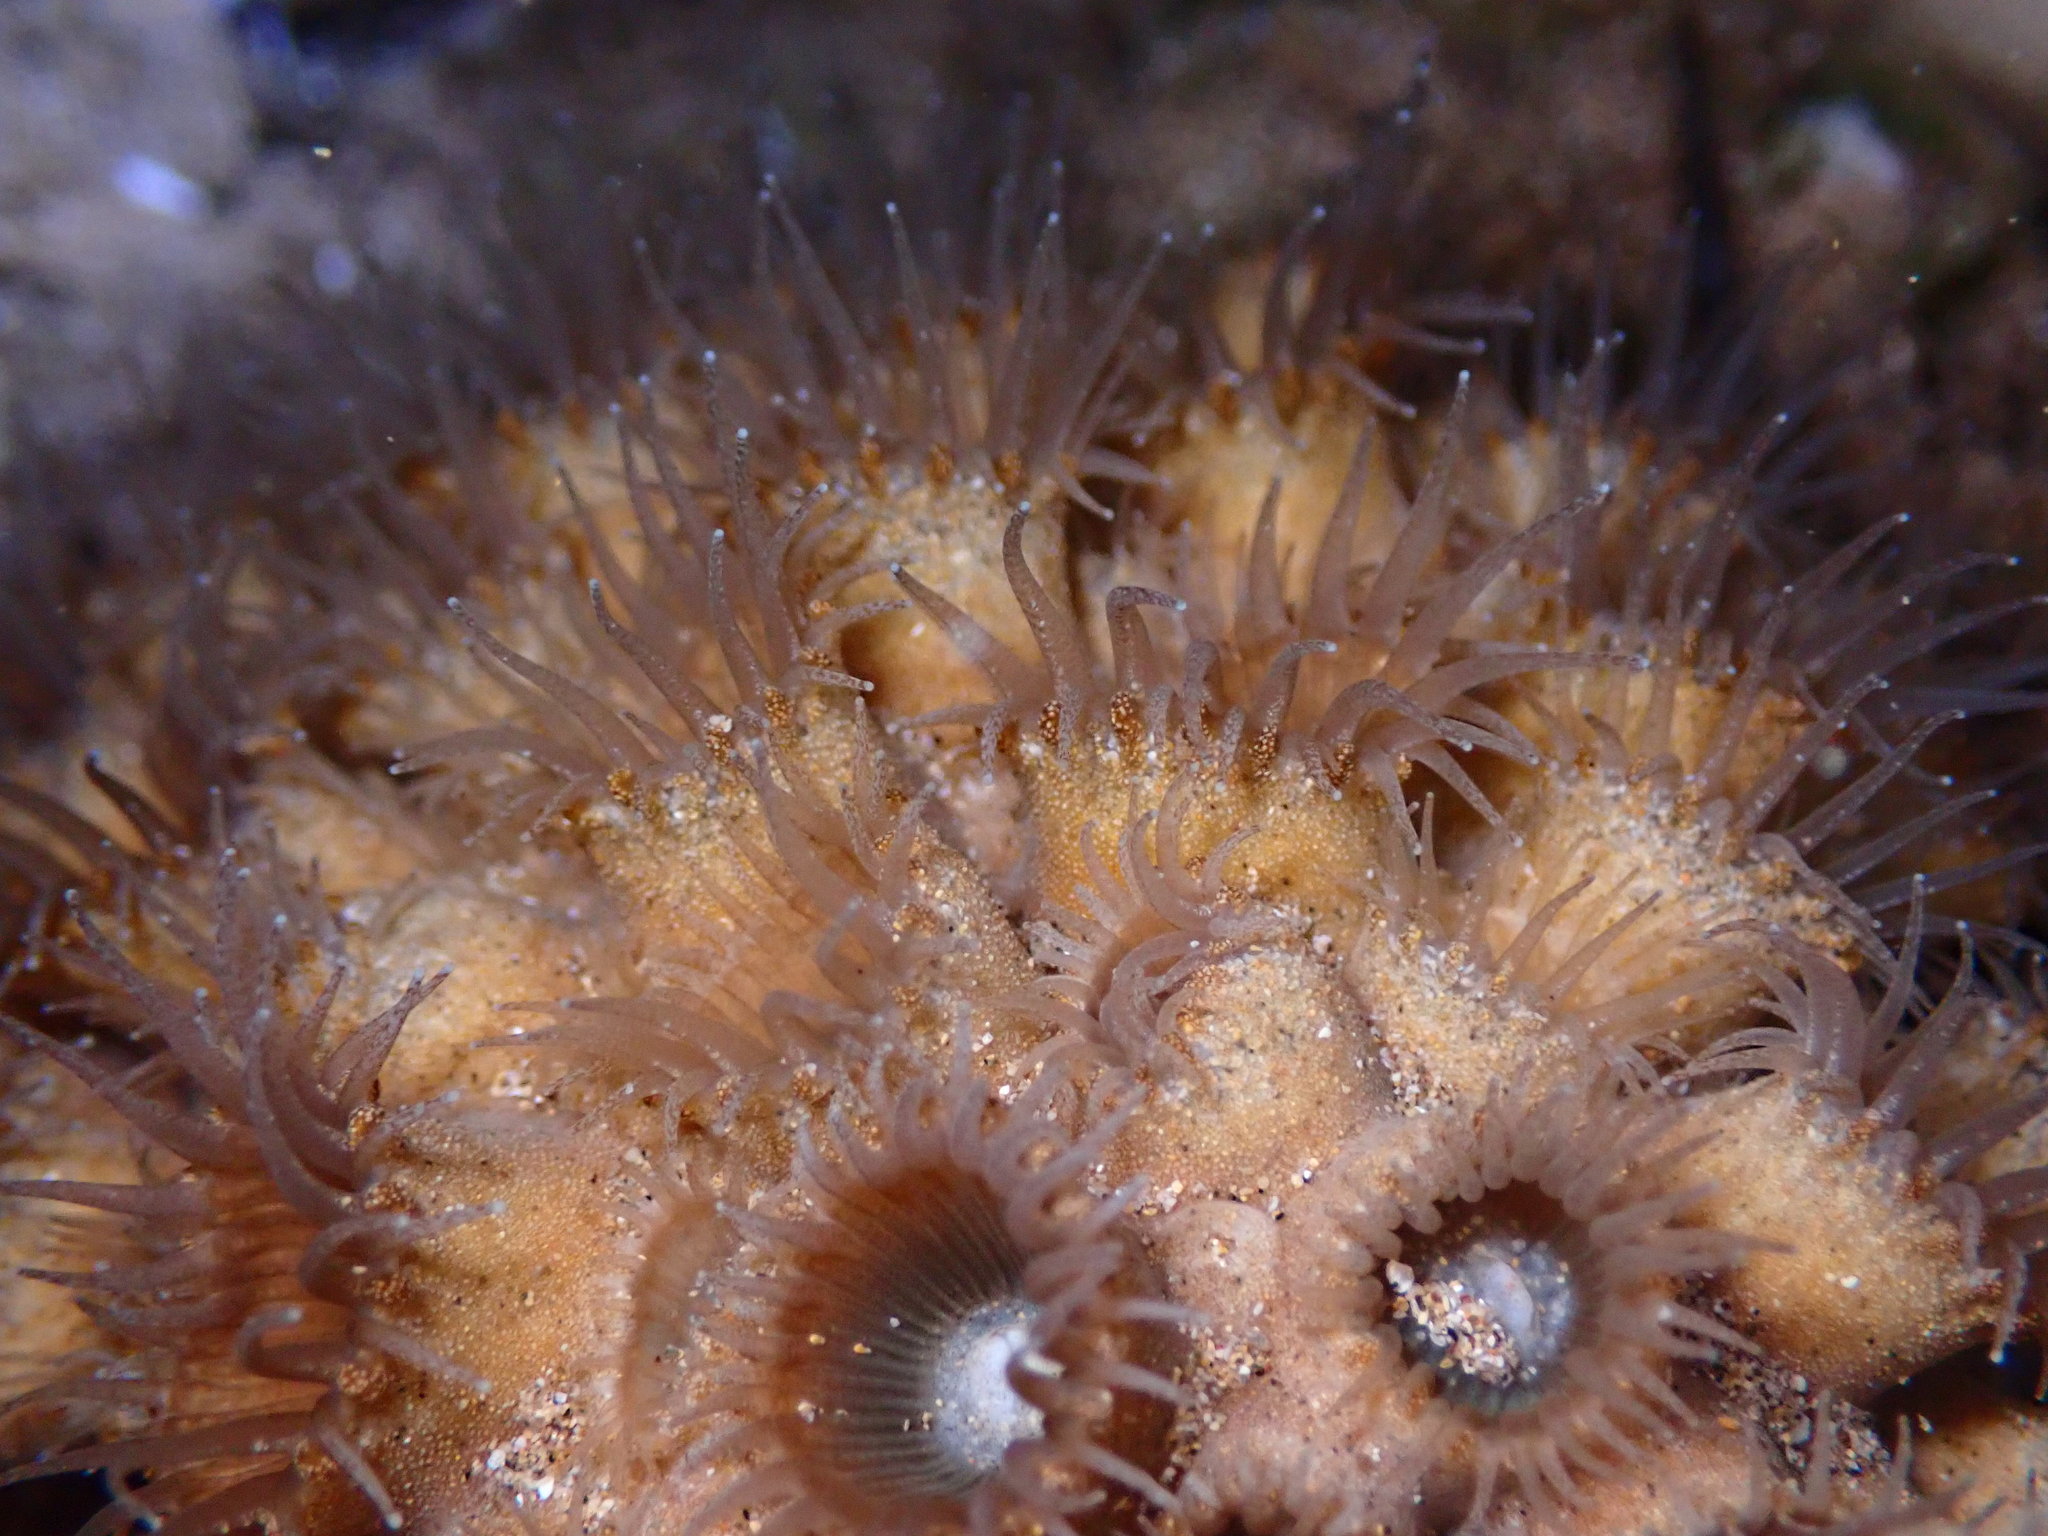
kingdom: Animalia
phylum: Cnidaria
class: Anthozoa
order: Zoantharia
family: Sphenopidae
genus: Palythoa
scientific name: Palythoa tuberculosa
